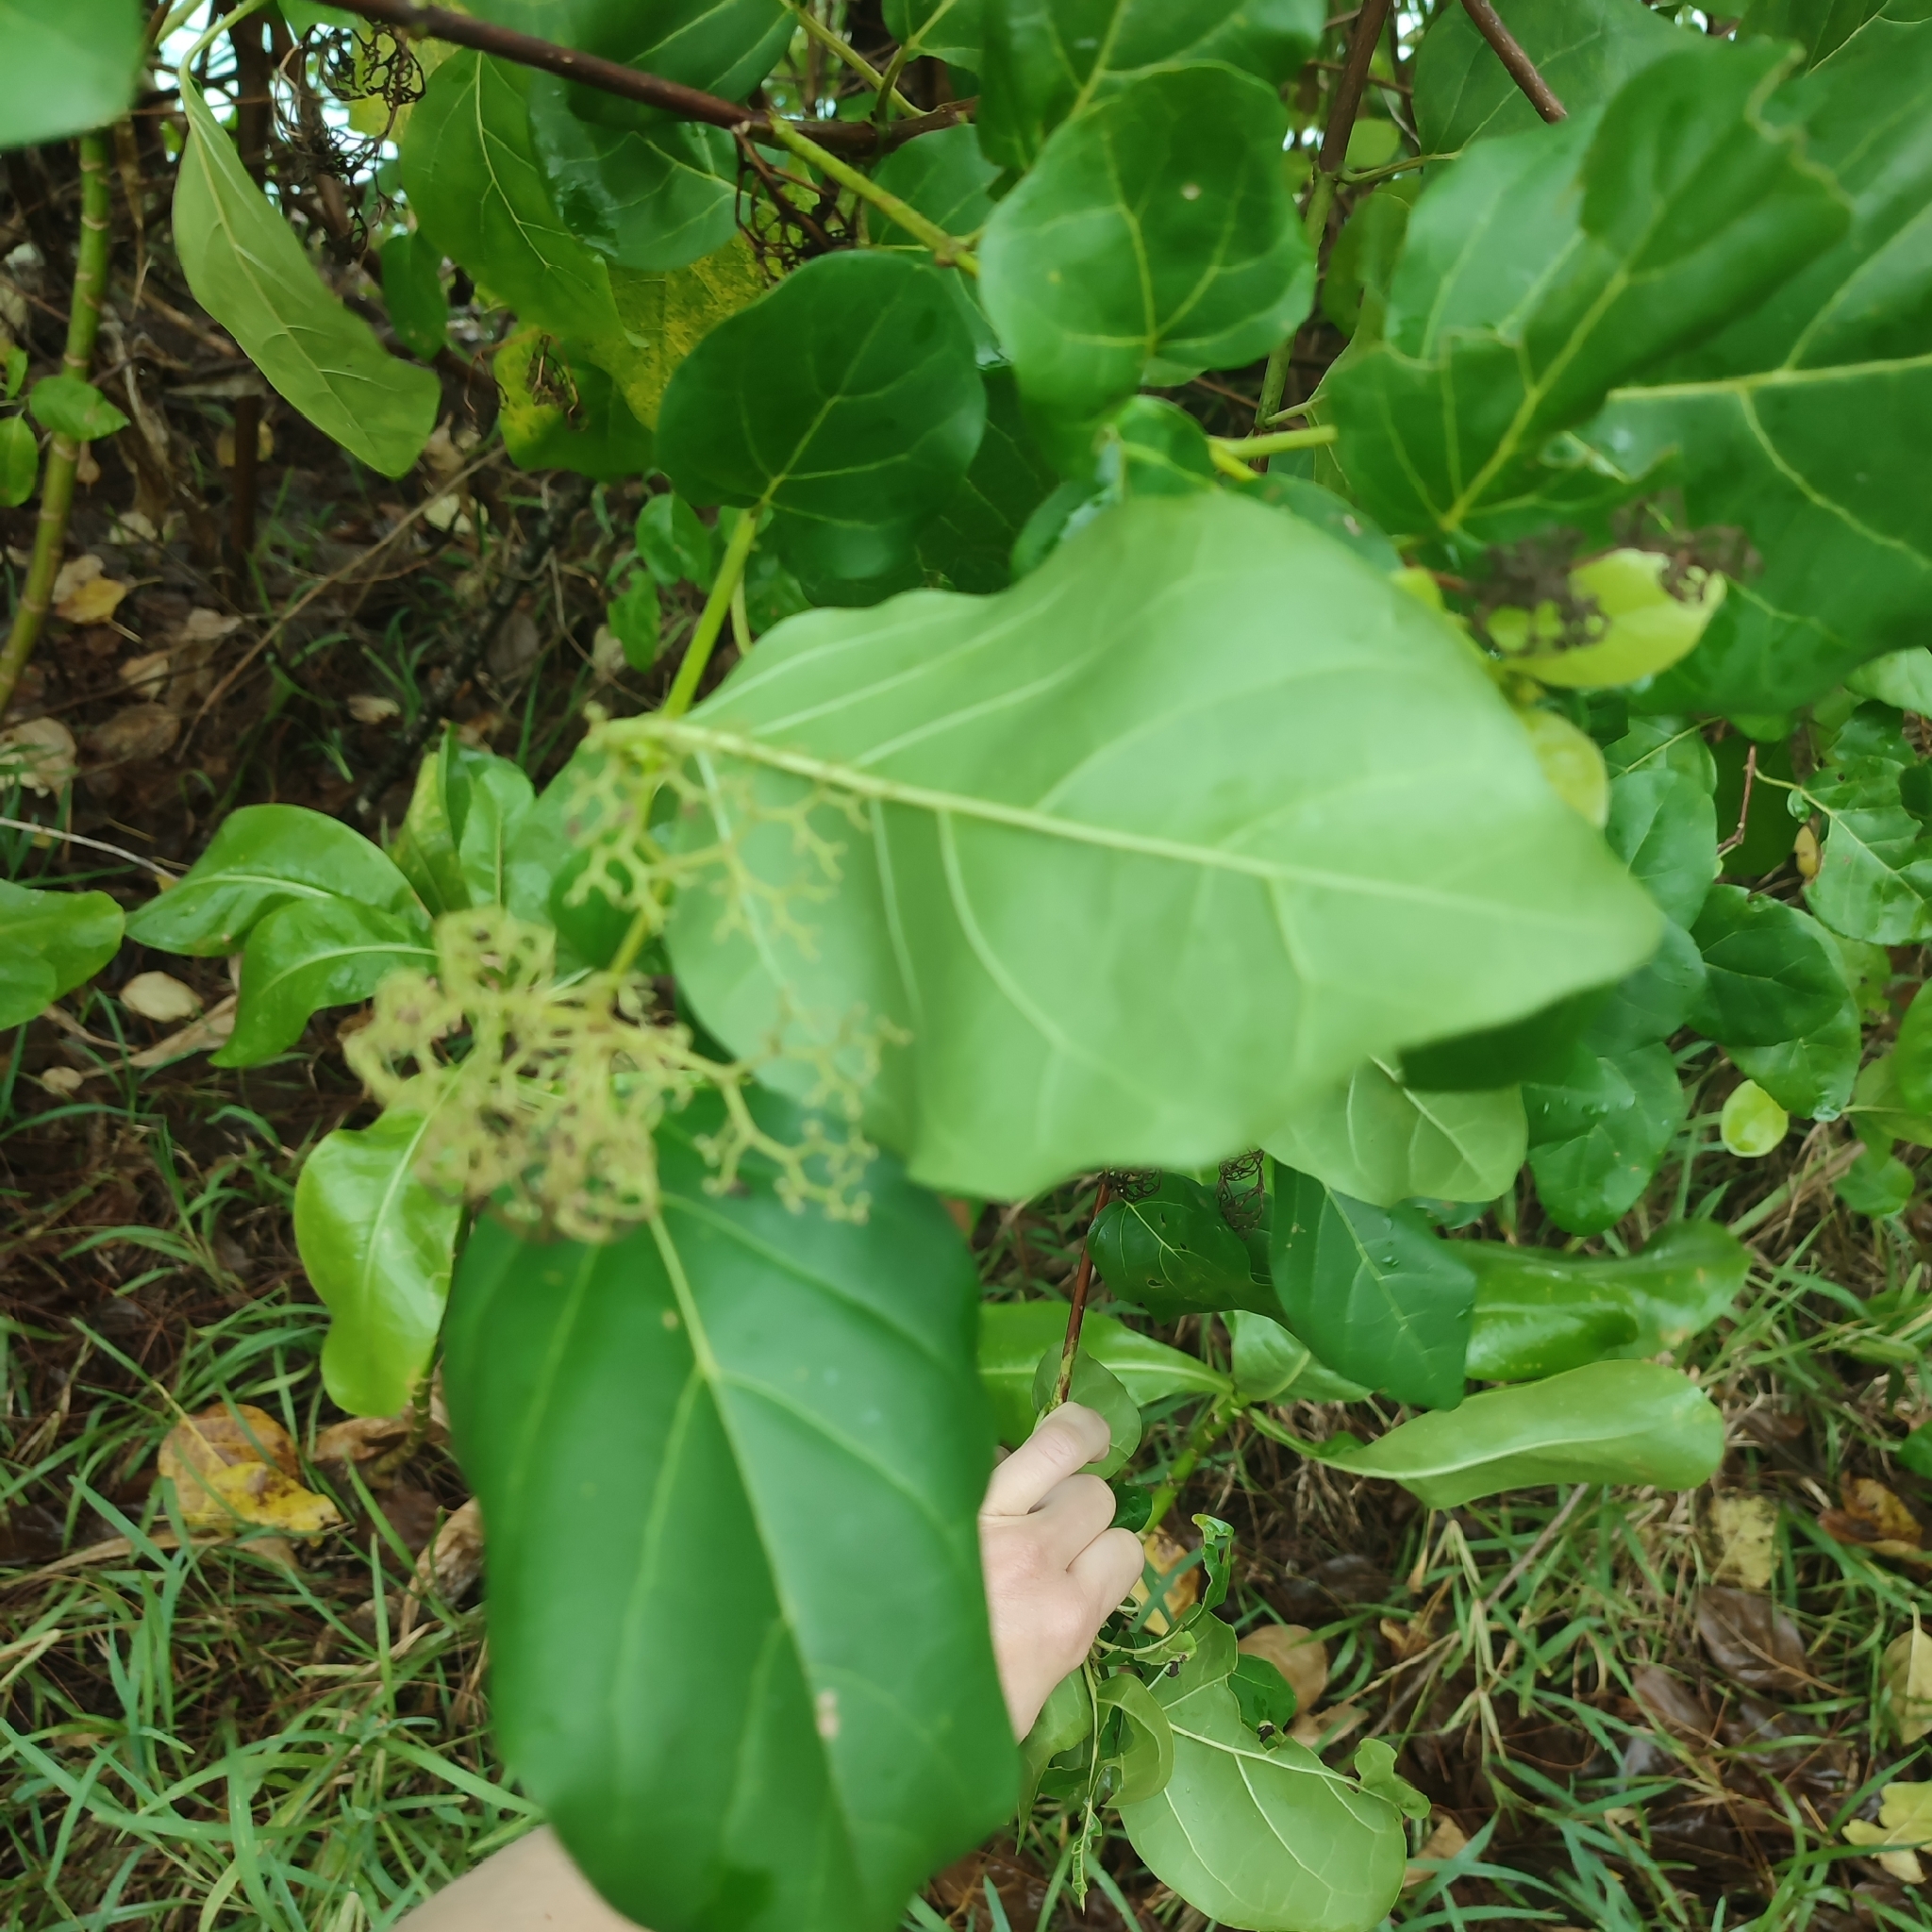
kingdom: Plantae
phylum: Tracheophyta
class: Magnoliopsida
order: Lamiales
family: Lamiaceae
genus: Premna
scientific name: Premna serratifolia
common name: Bastard guelder
